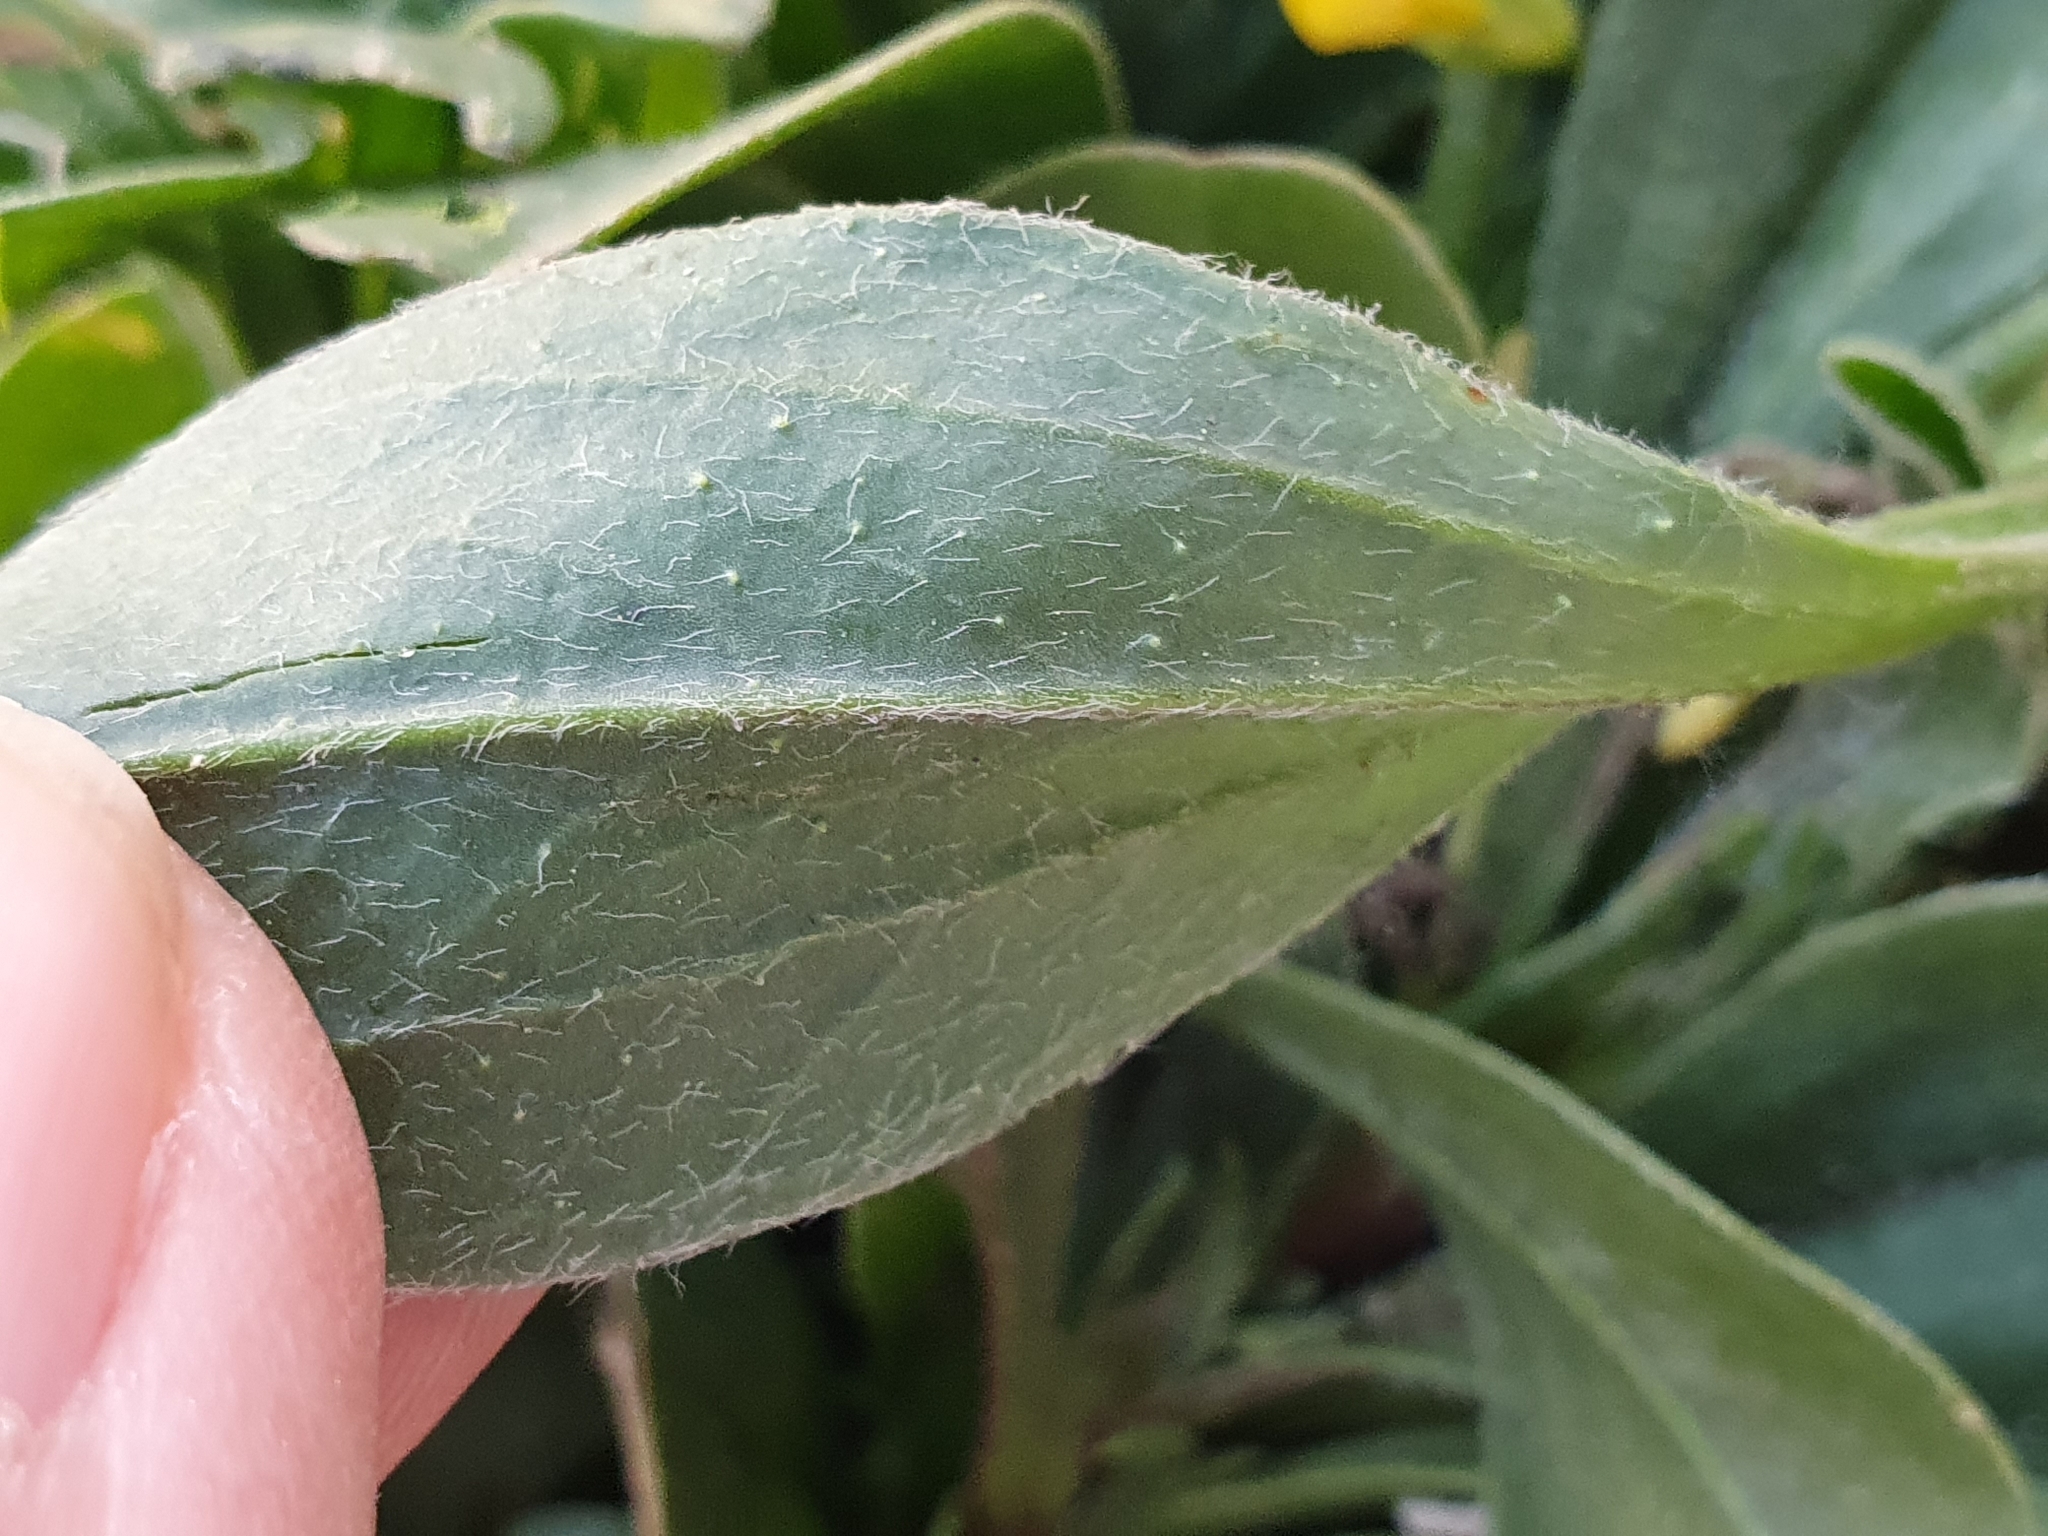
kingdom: Plantae
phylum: Tracheophyta
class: Magnoliopsida
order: Fabales
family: Fabaceae
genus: Scorpiurus
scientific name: Scorpiurus muricatus
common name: Caterpillar-plant
